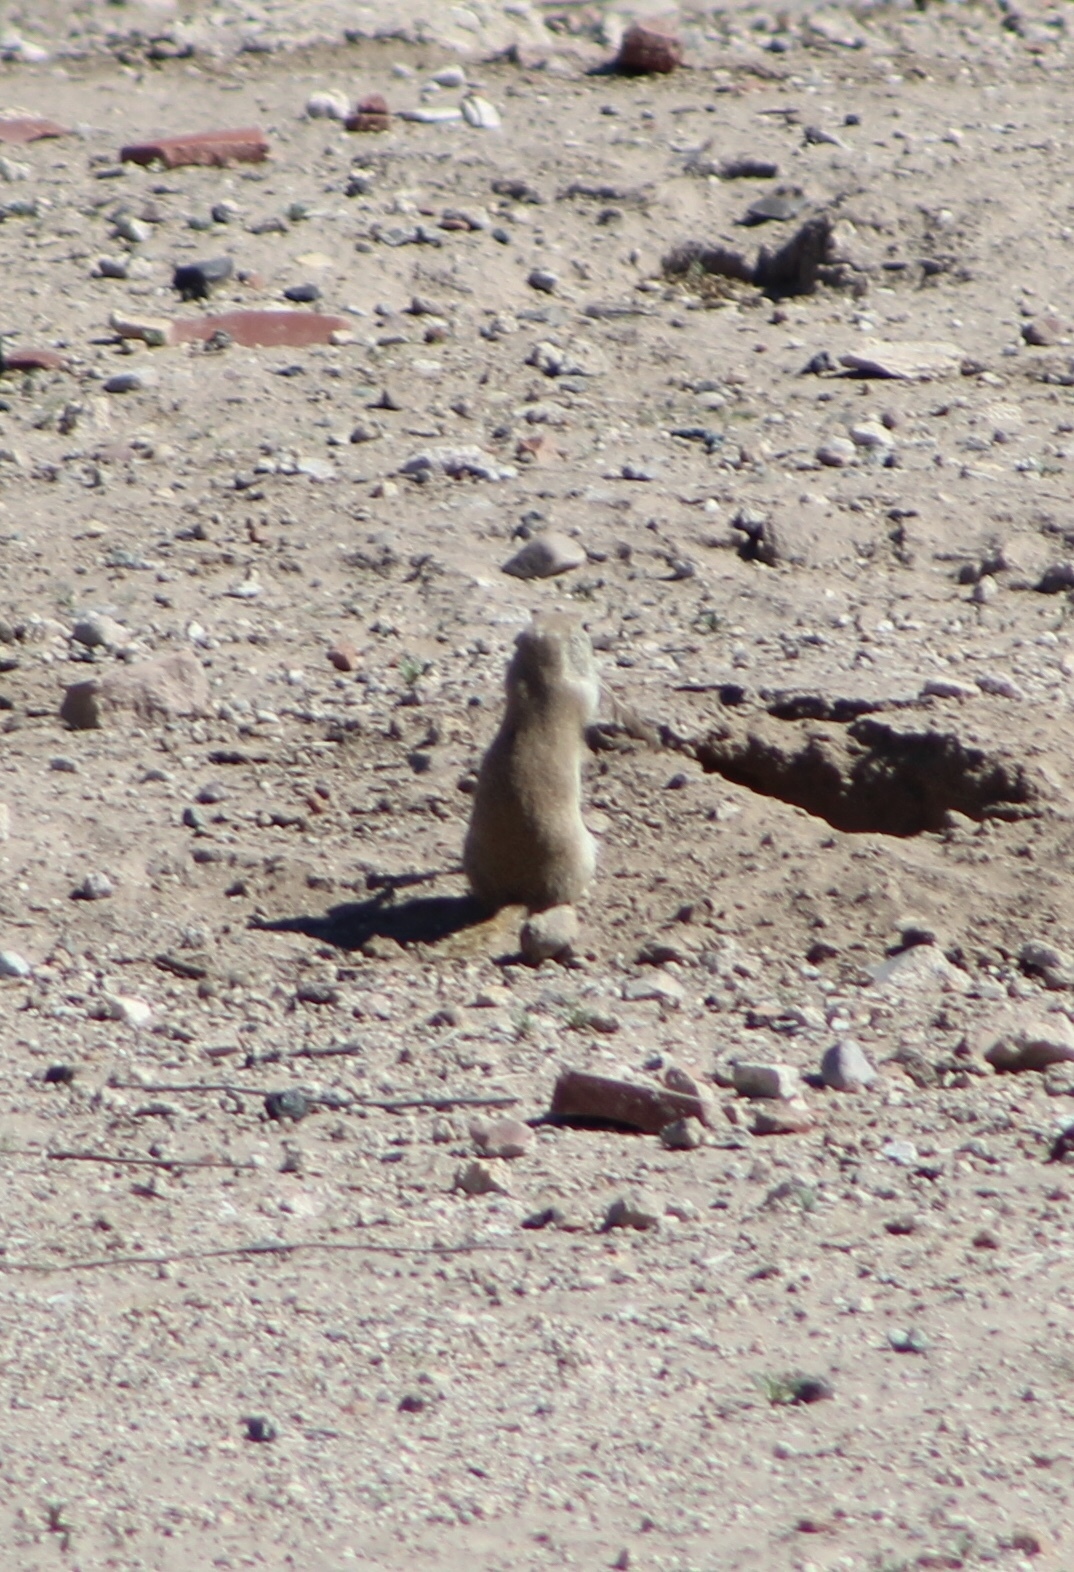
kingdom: Animalia
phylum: Chordata
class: Mammalia
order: Rodentia
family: Sciuridae
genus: Xerospermophilus
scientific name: Xerospermophilus tereticaudus
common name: Round-tailed ground squirrel
